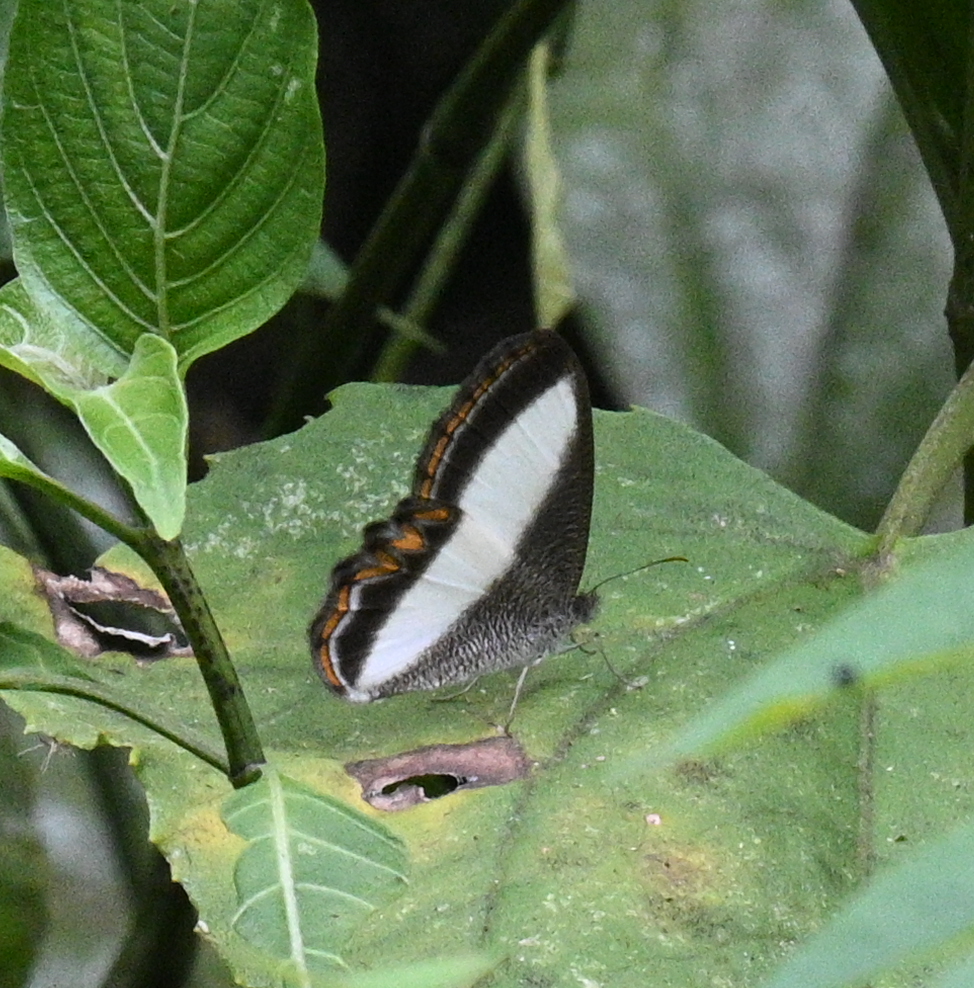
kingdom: Animalia
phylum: Arthropoda
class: Insecta
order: Lepidoptera
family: Nymphalidae
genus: Oressinoma
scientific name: Oressinoma typhla
